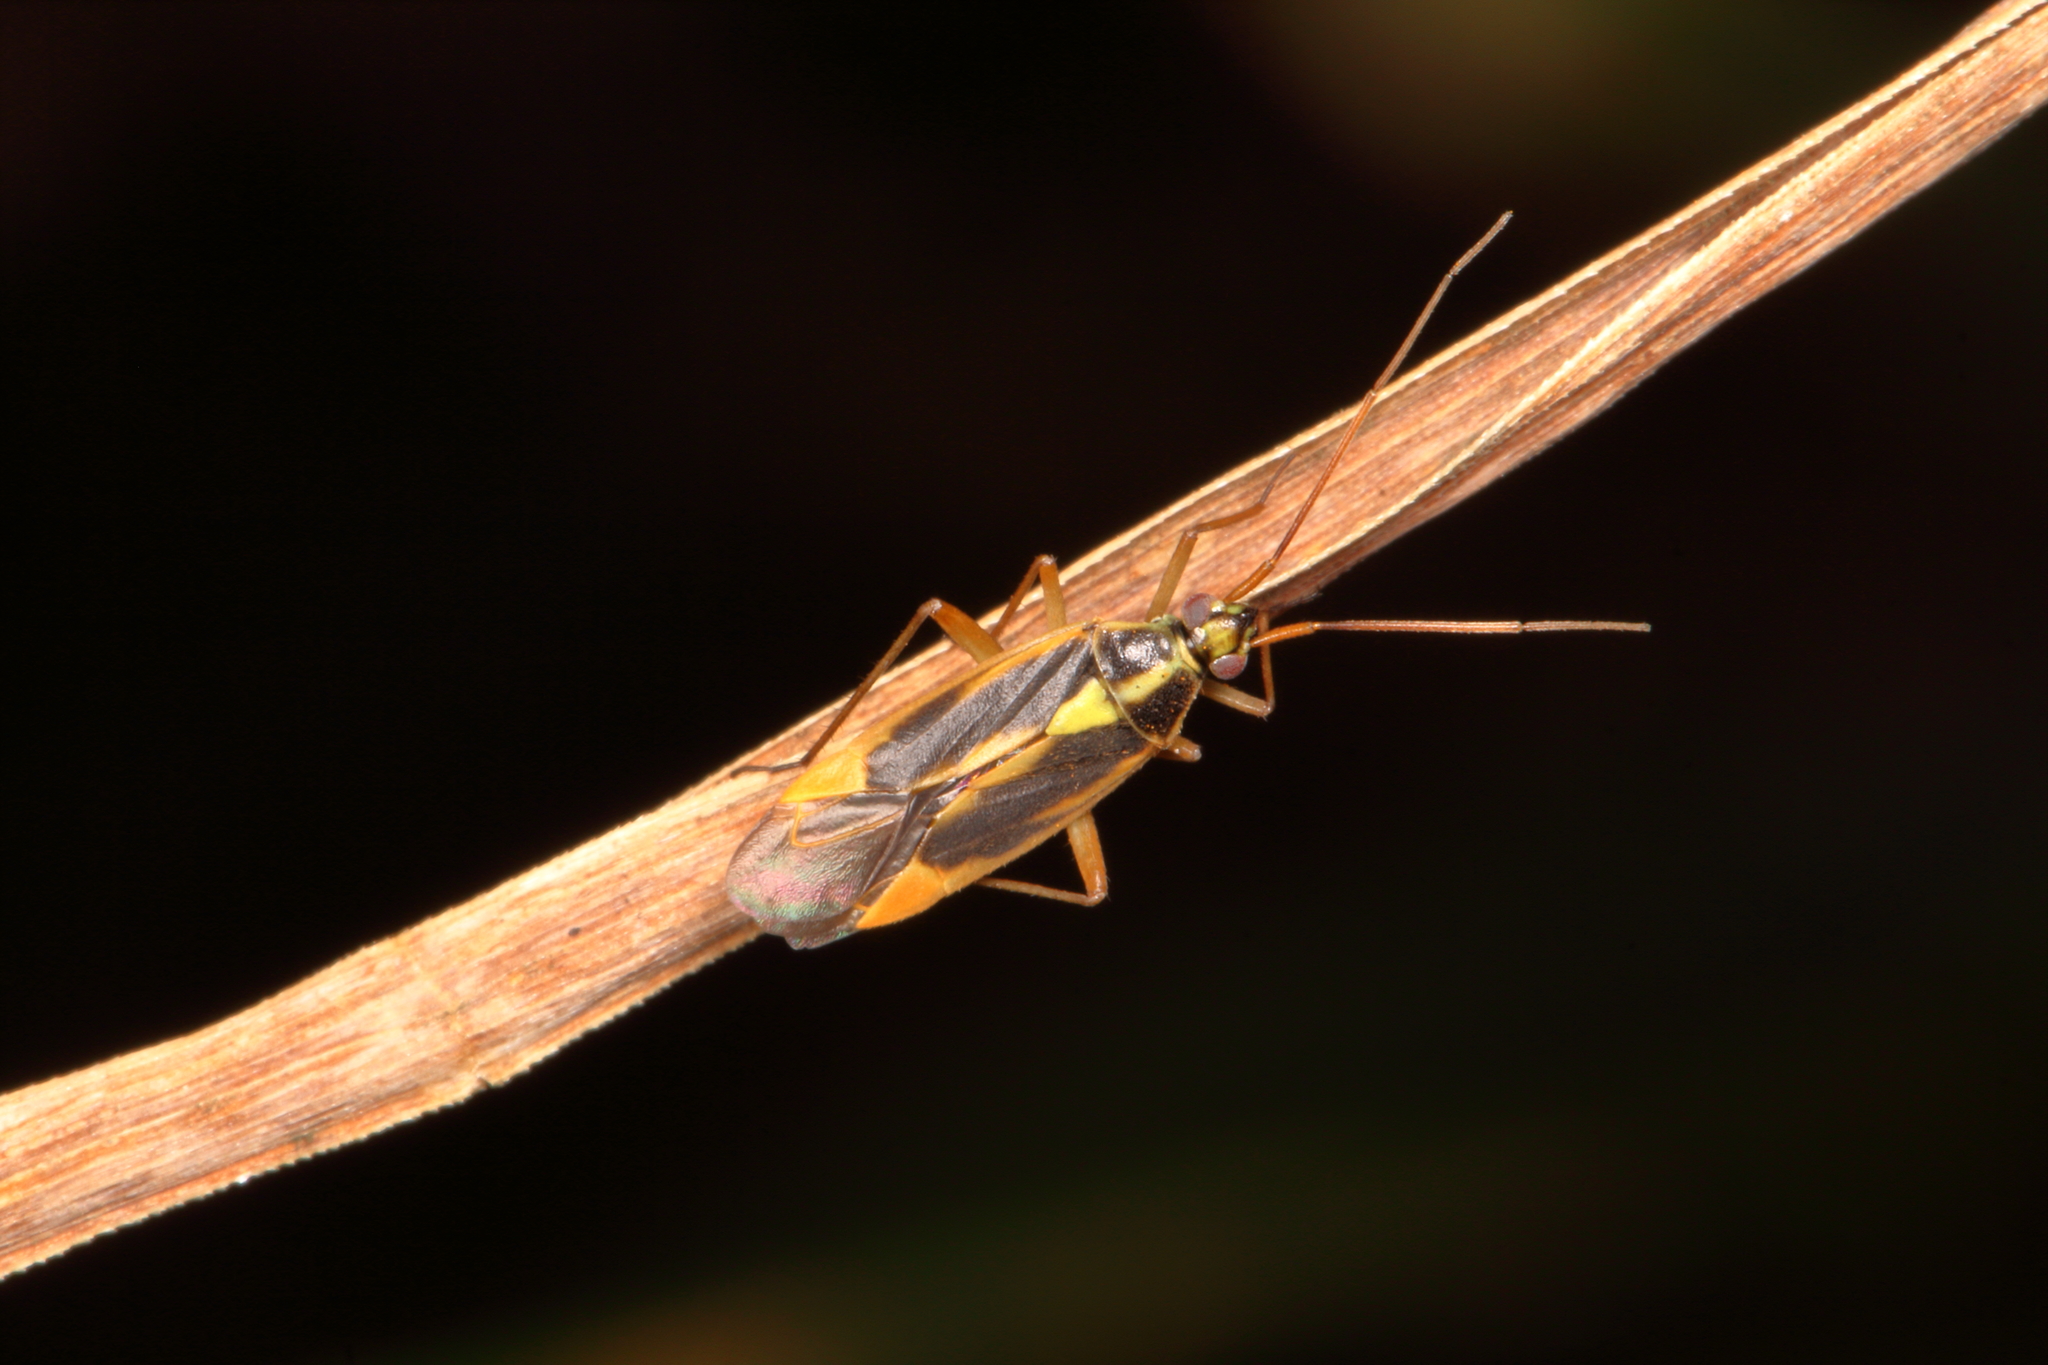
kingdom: Animalia
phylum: Arthropoda
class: Insecta
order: Hemiptera
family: Miridae
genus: Stenotus
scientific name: Stenotus binotatus
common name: Plant bug
